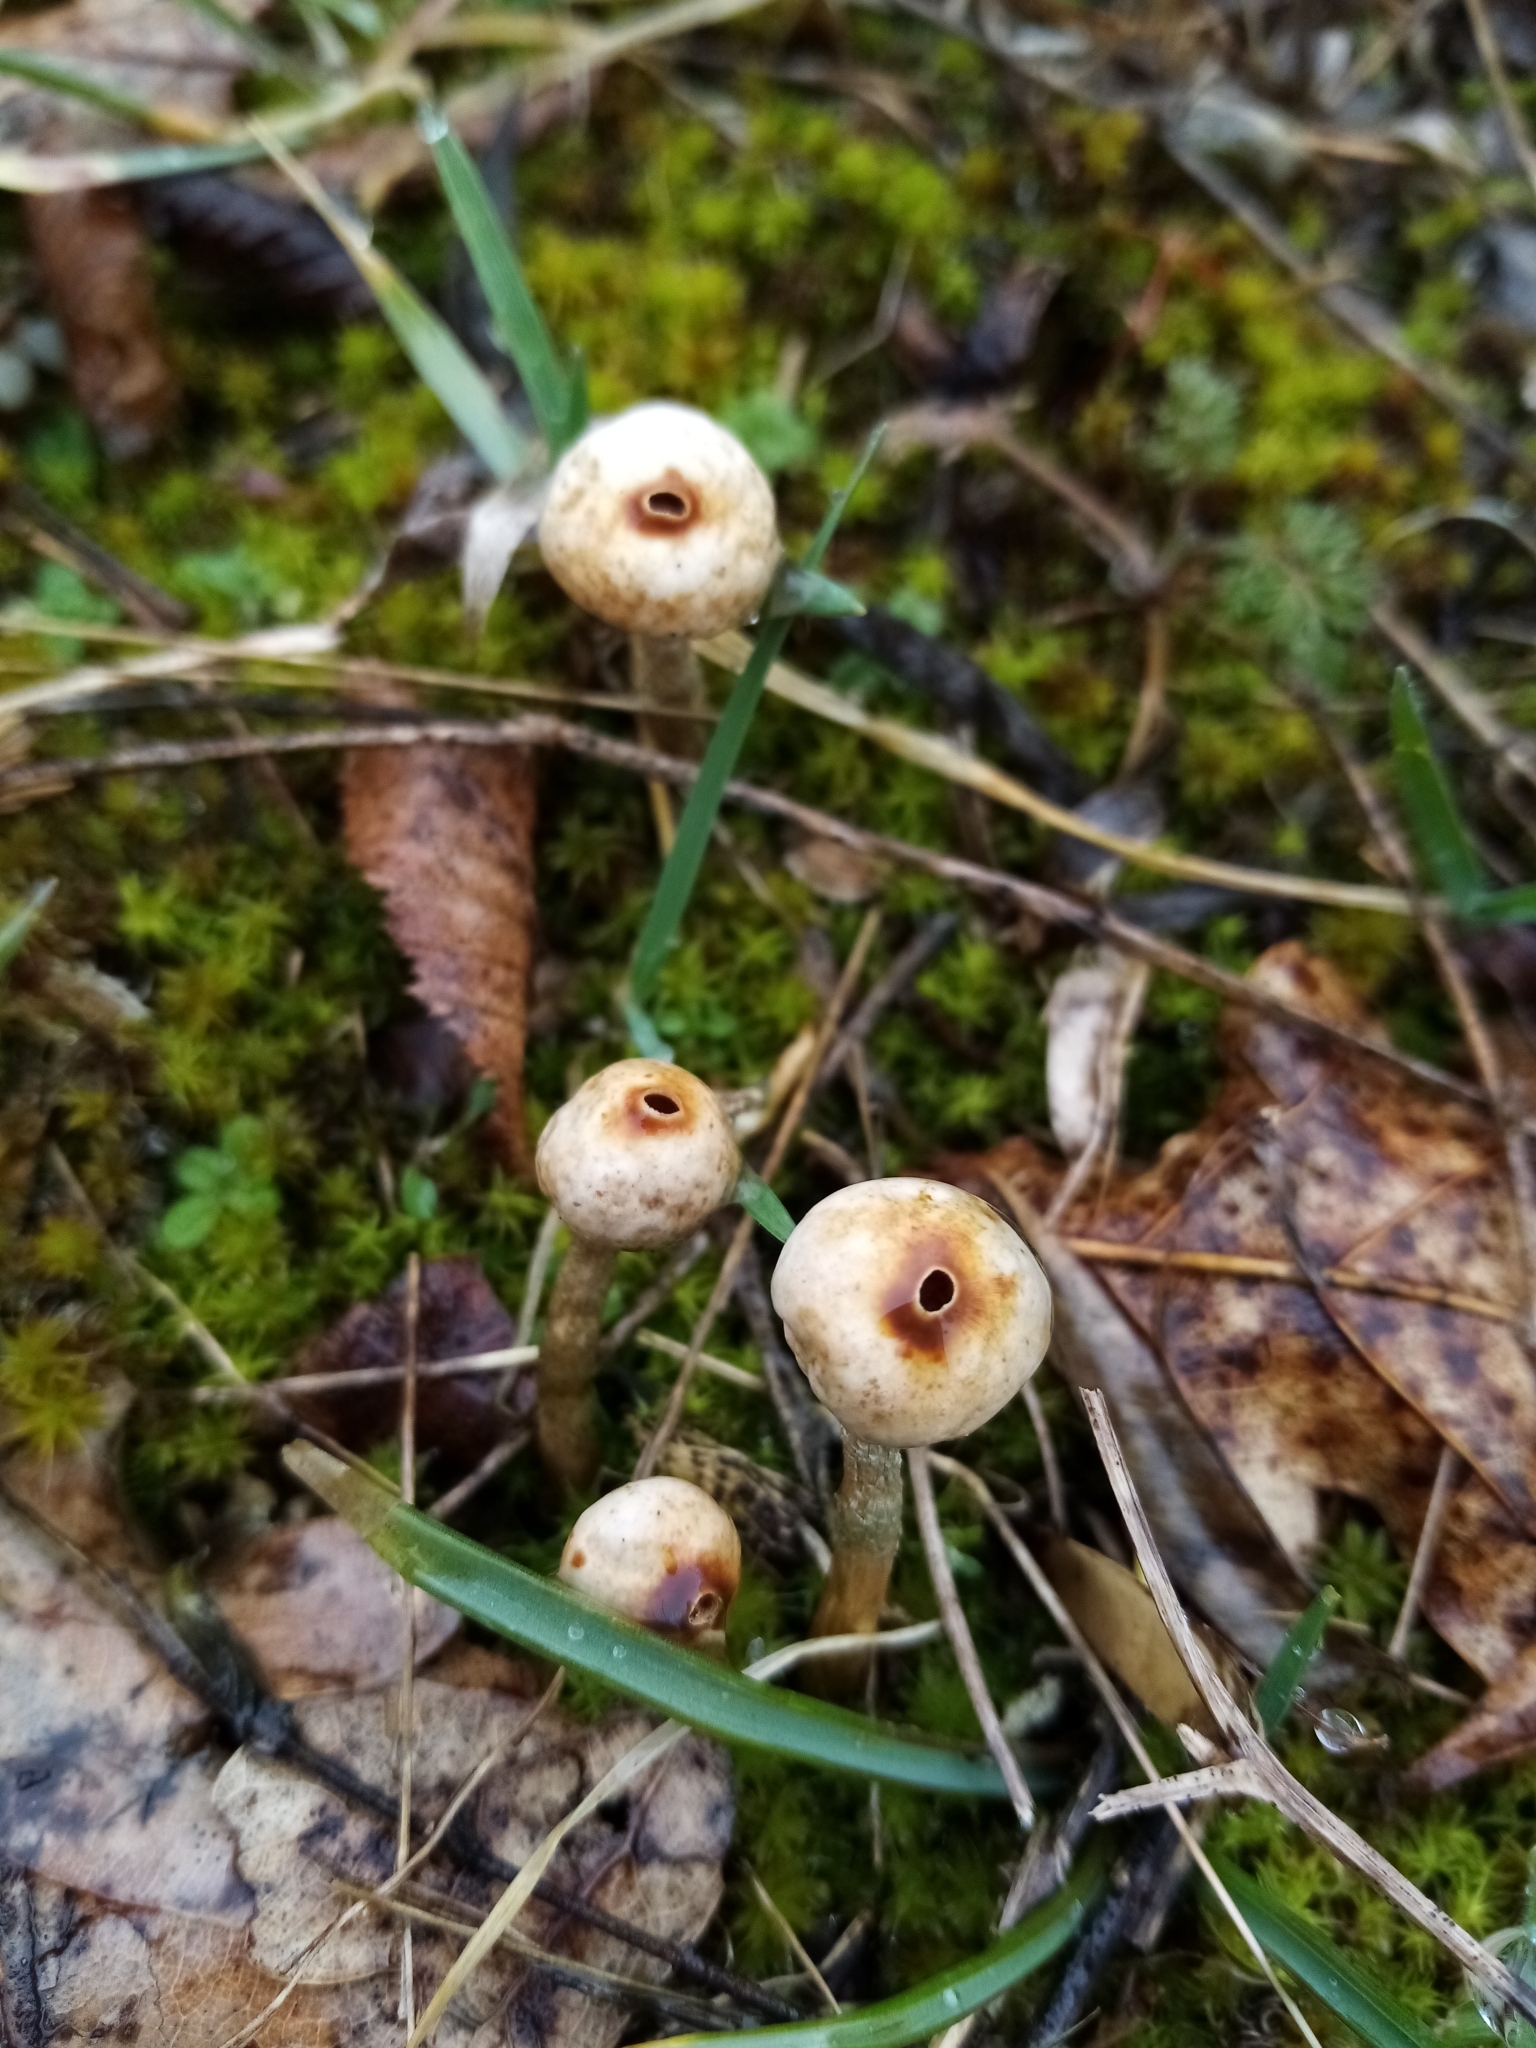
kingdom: Fungi
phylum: Basidiomycota
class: Agaricomycetes
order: Agaricales
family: Agaricaceae
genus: Tulostoma
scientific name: Tulostoma brumale
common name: Winter stalk puffball
